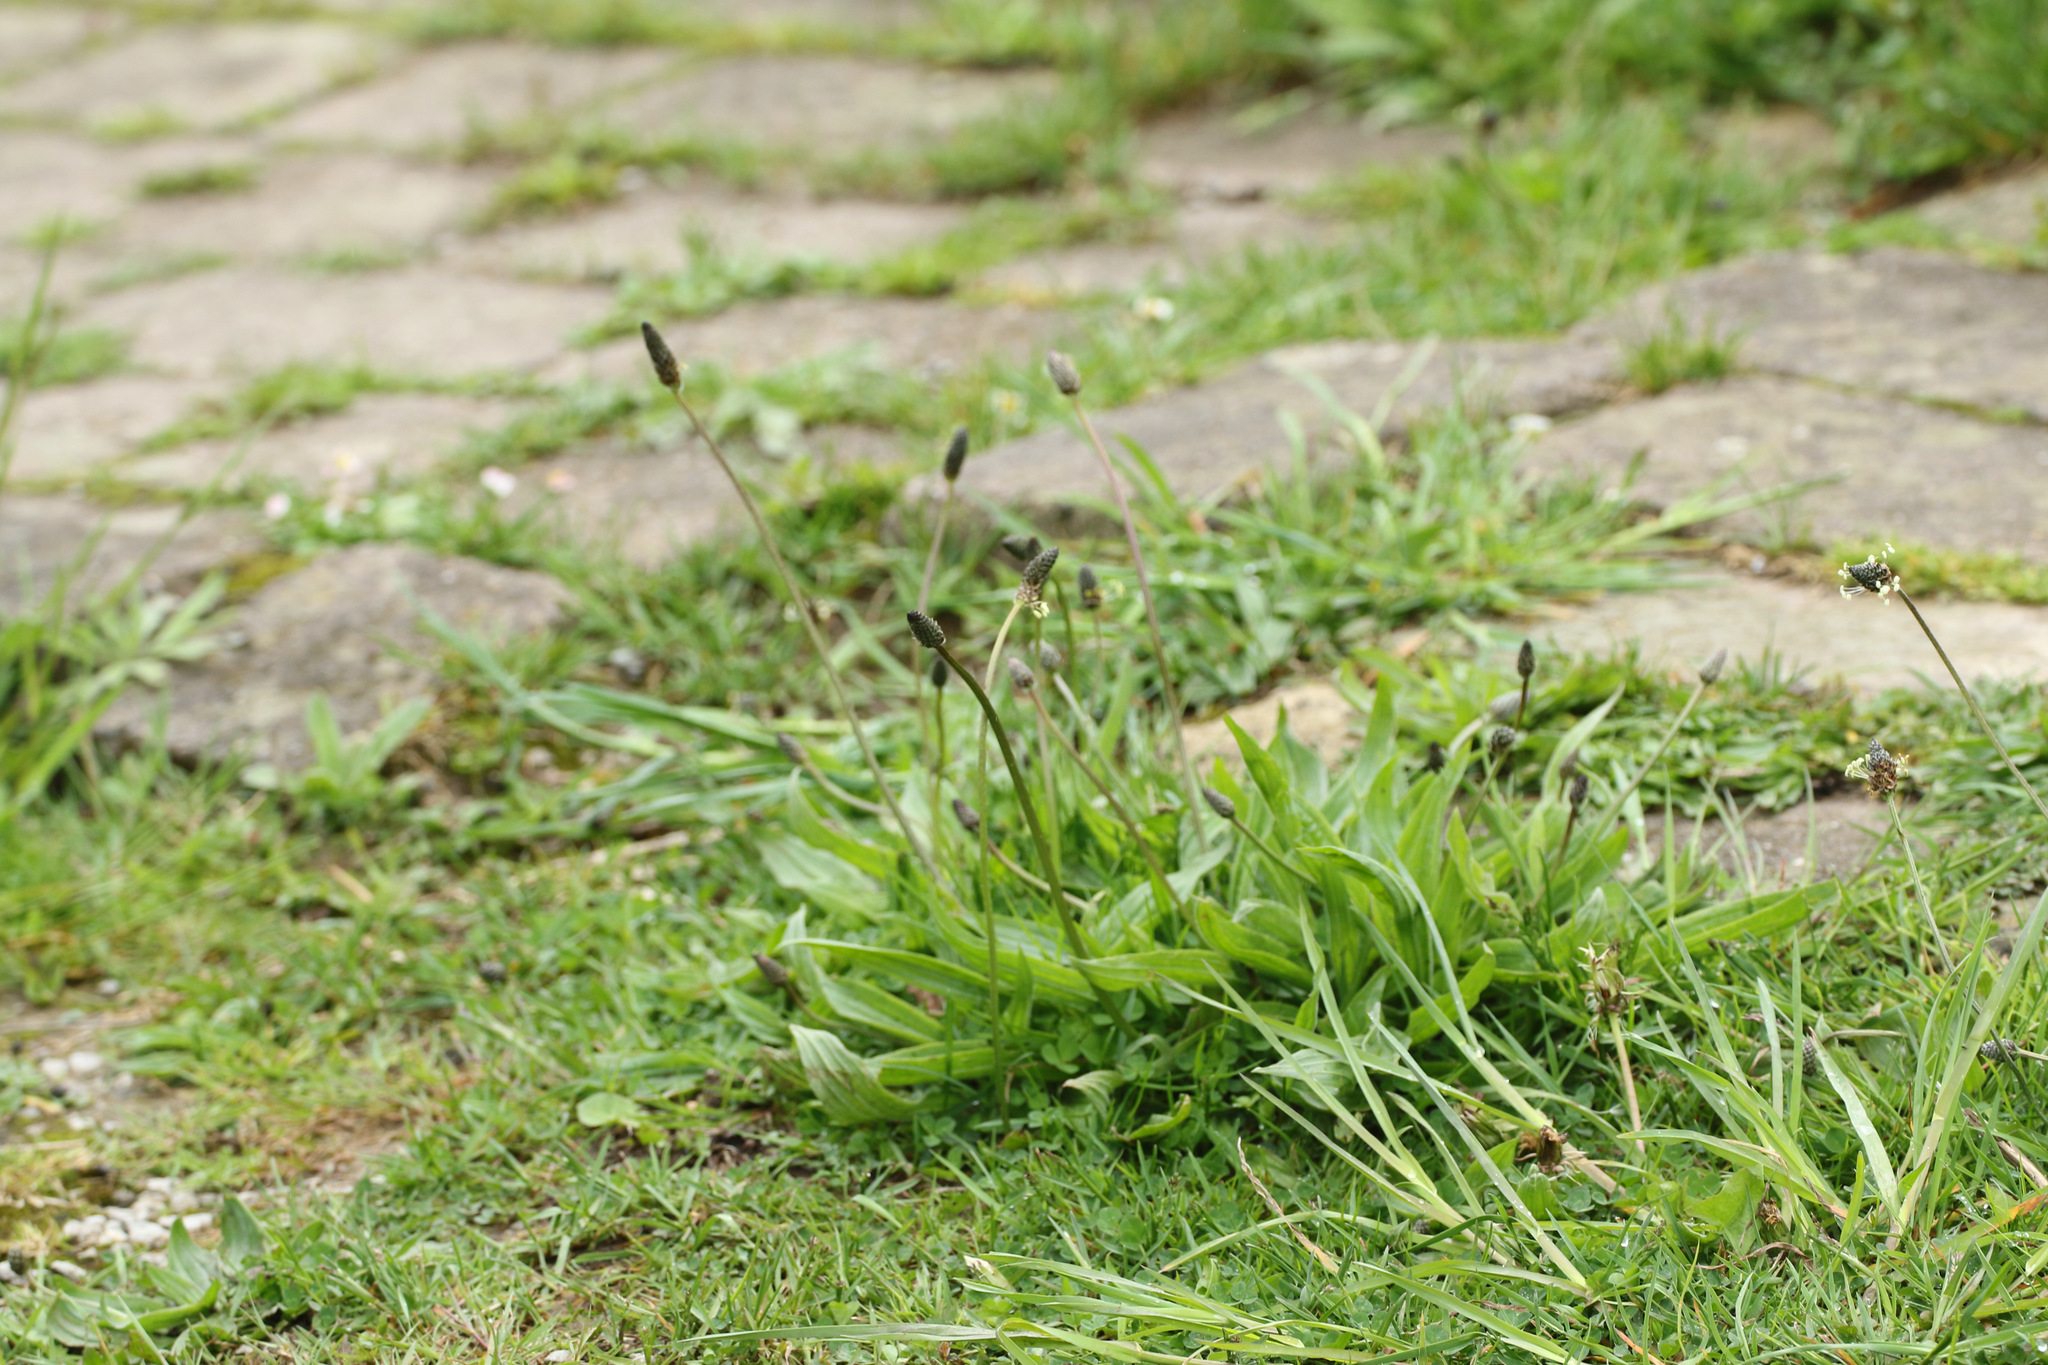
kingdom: Plantae
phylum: Tracheophyta
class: Magnoliopsida
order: Lamiales
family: Plantaginaceae
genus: Plantago
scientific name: Plantago lanceolata
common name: Ribwort plantain
